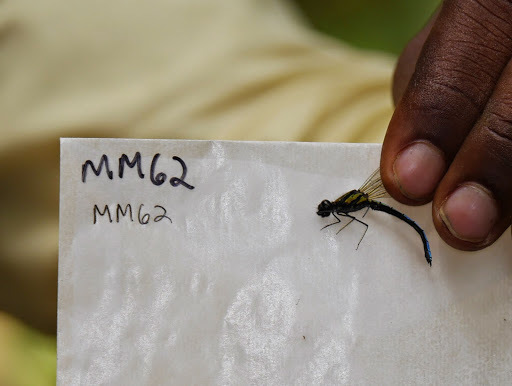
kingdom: Animalia
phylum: Arthropoda
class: Insecta
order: Odonata
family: Chlorocyphidae
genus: Chlorocypha
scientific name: Chlorocypha aphrodite
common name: Blue jewel
